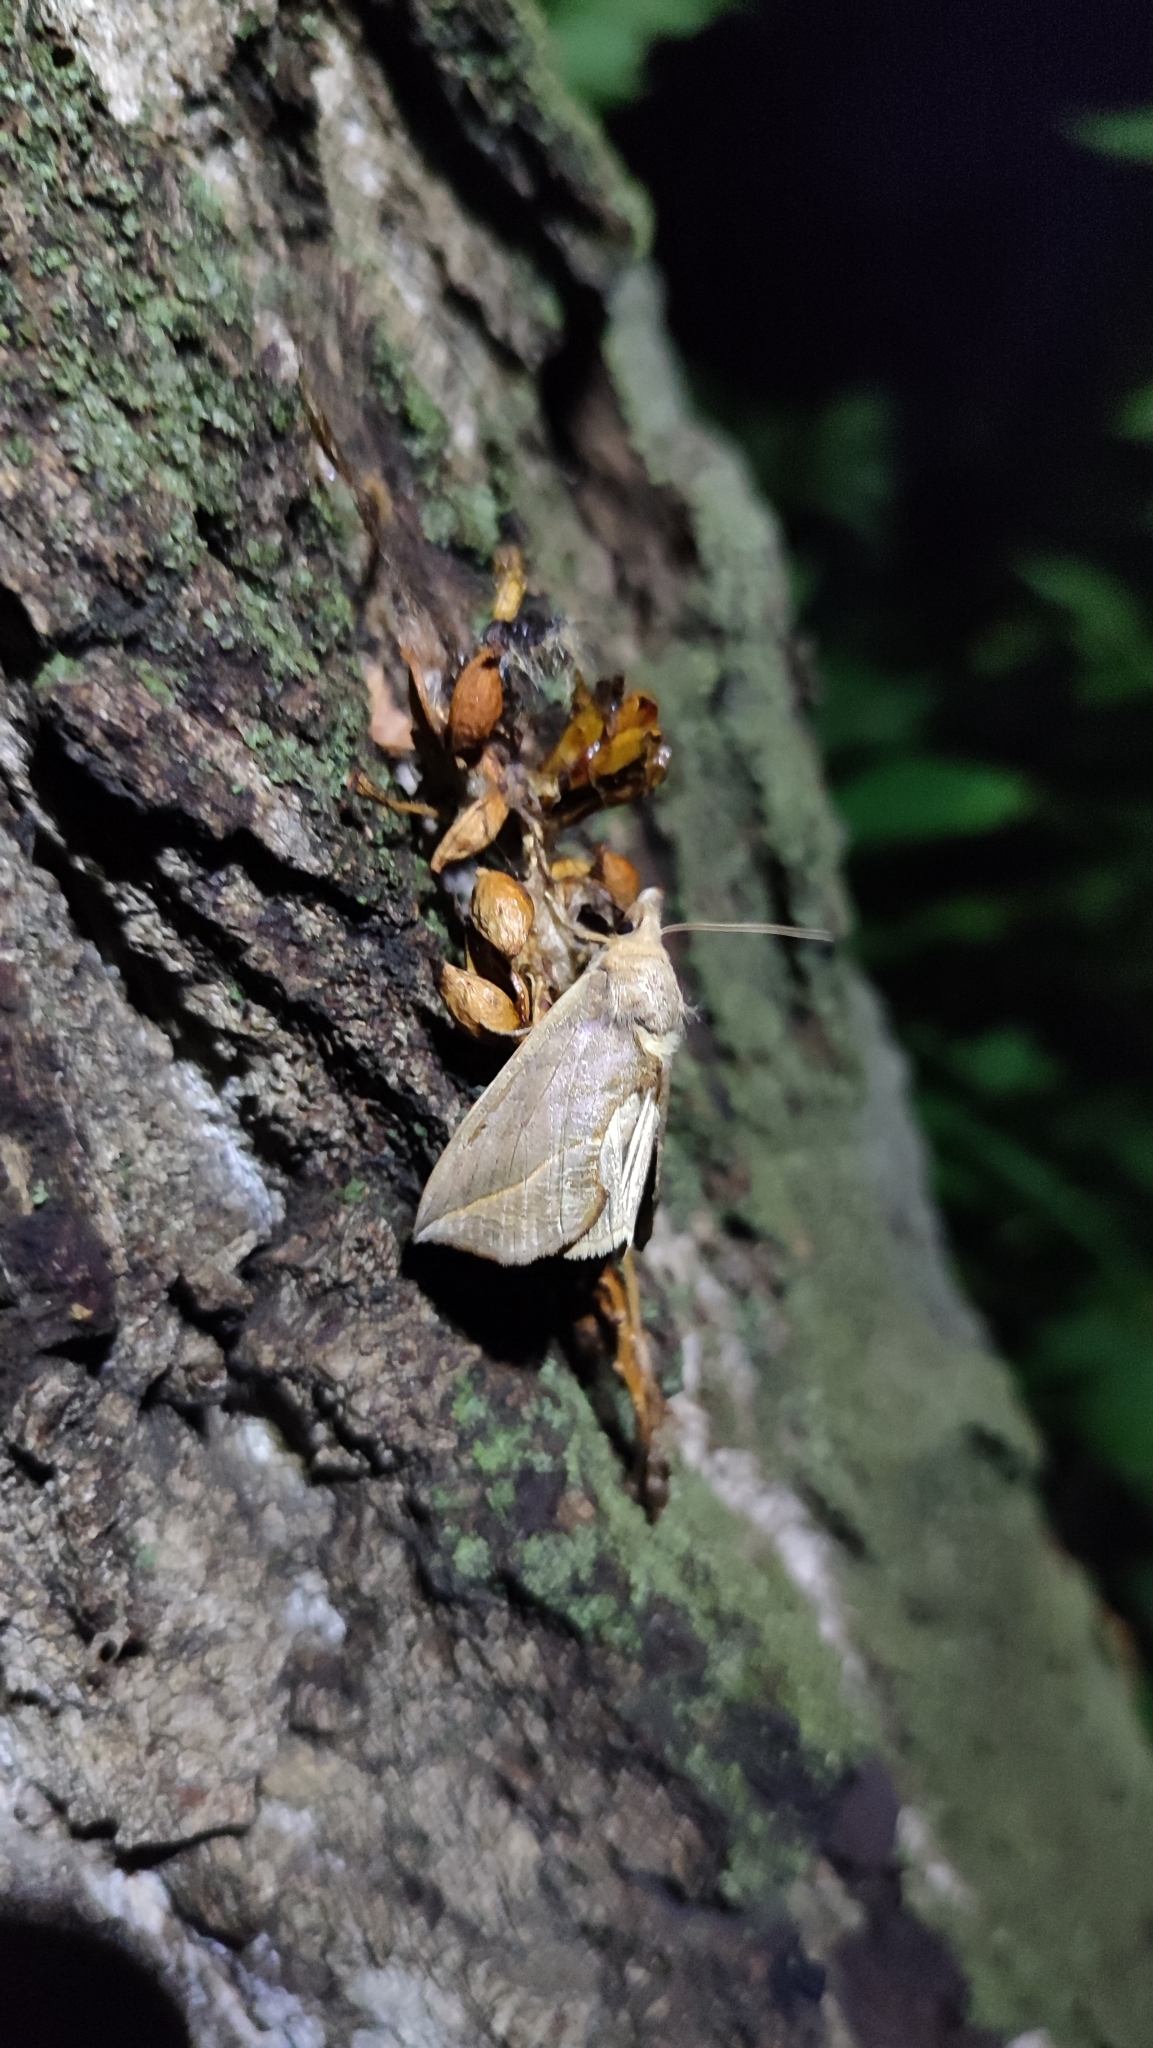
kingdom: Animalia
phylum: Arthropoda
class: Insecta
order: Lepidoptera
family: Erebidae
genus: Calyptra
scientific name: Calyptra thalictri
